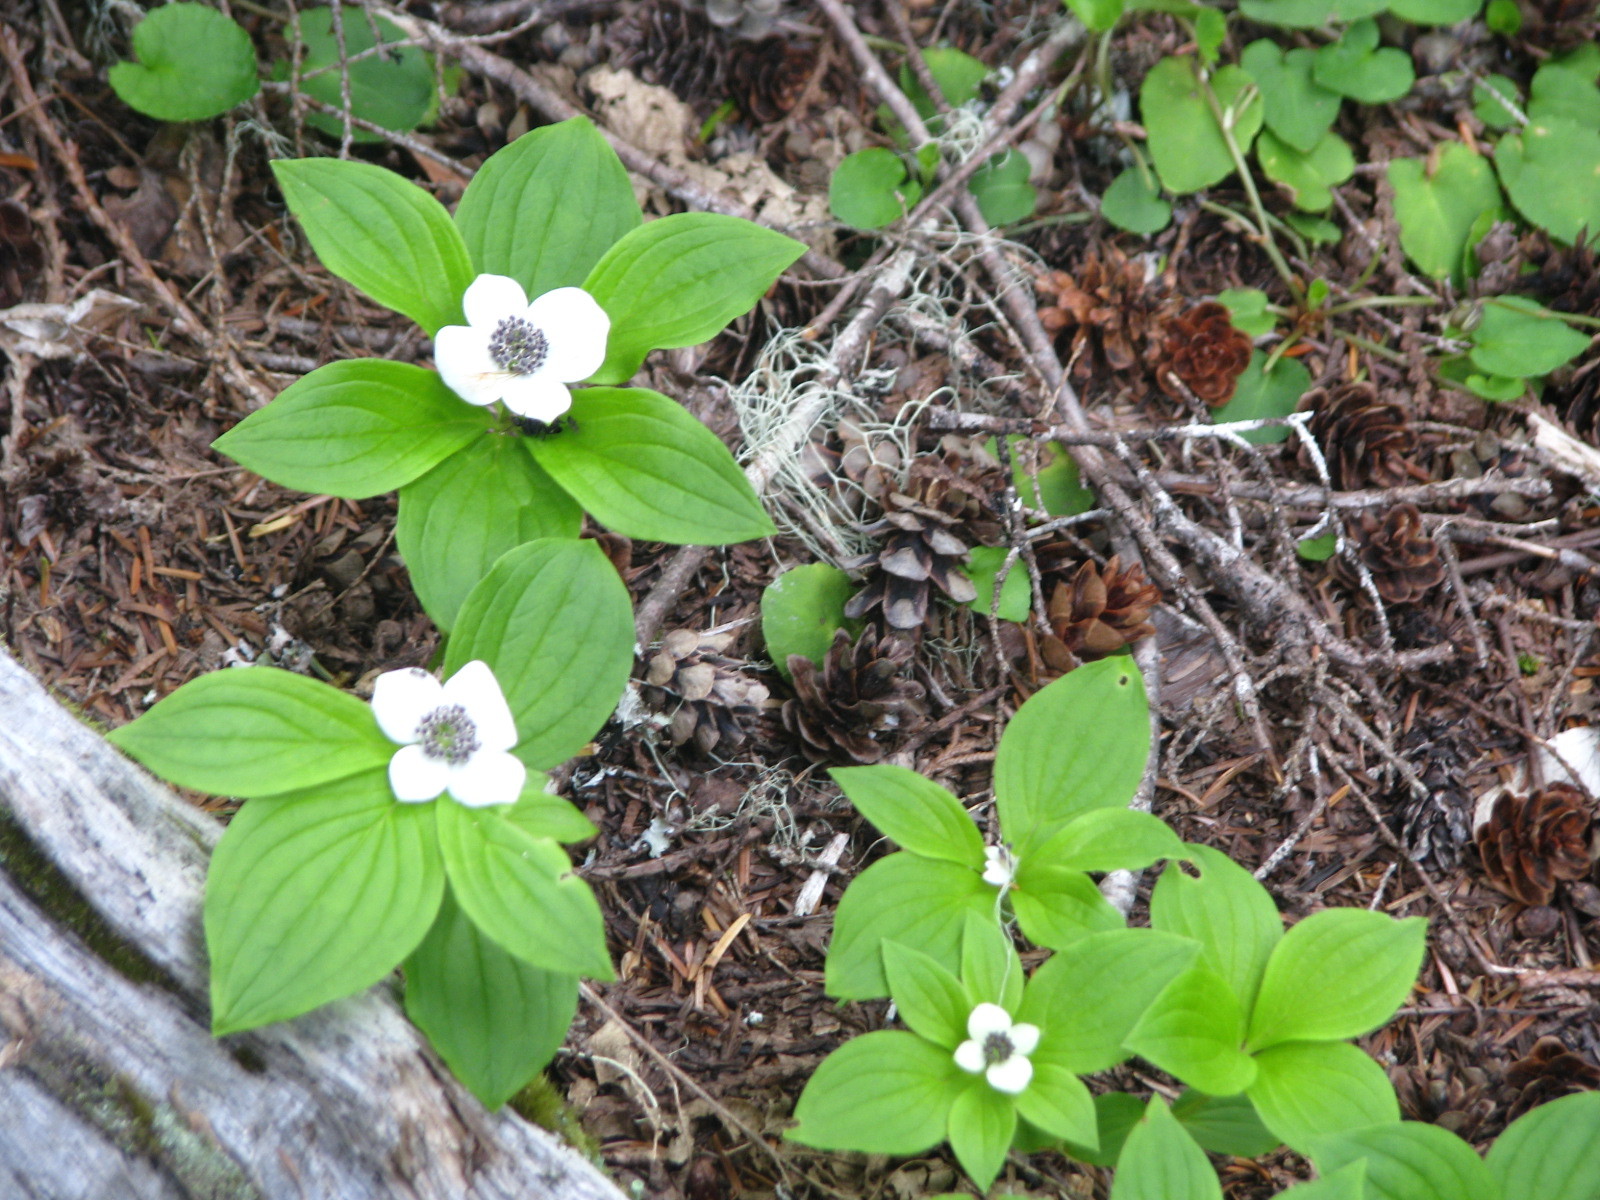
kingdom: Plantae
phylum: Tracheophyta
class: Magnoliopsida
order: Cornales
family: Cornaceae
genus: Cornus
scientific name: Cornus unalaschkensis
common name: Alaska bunchberry
